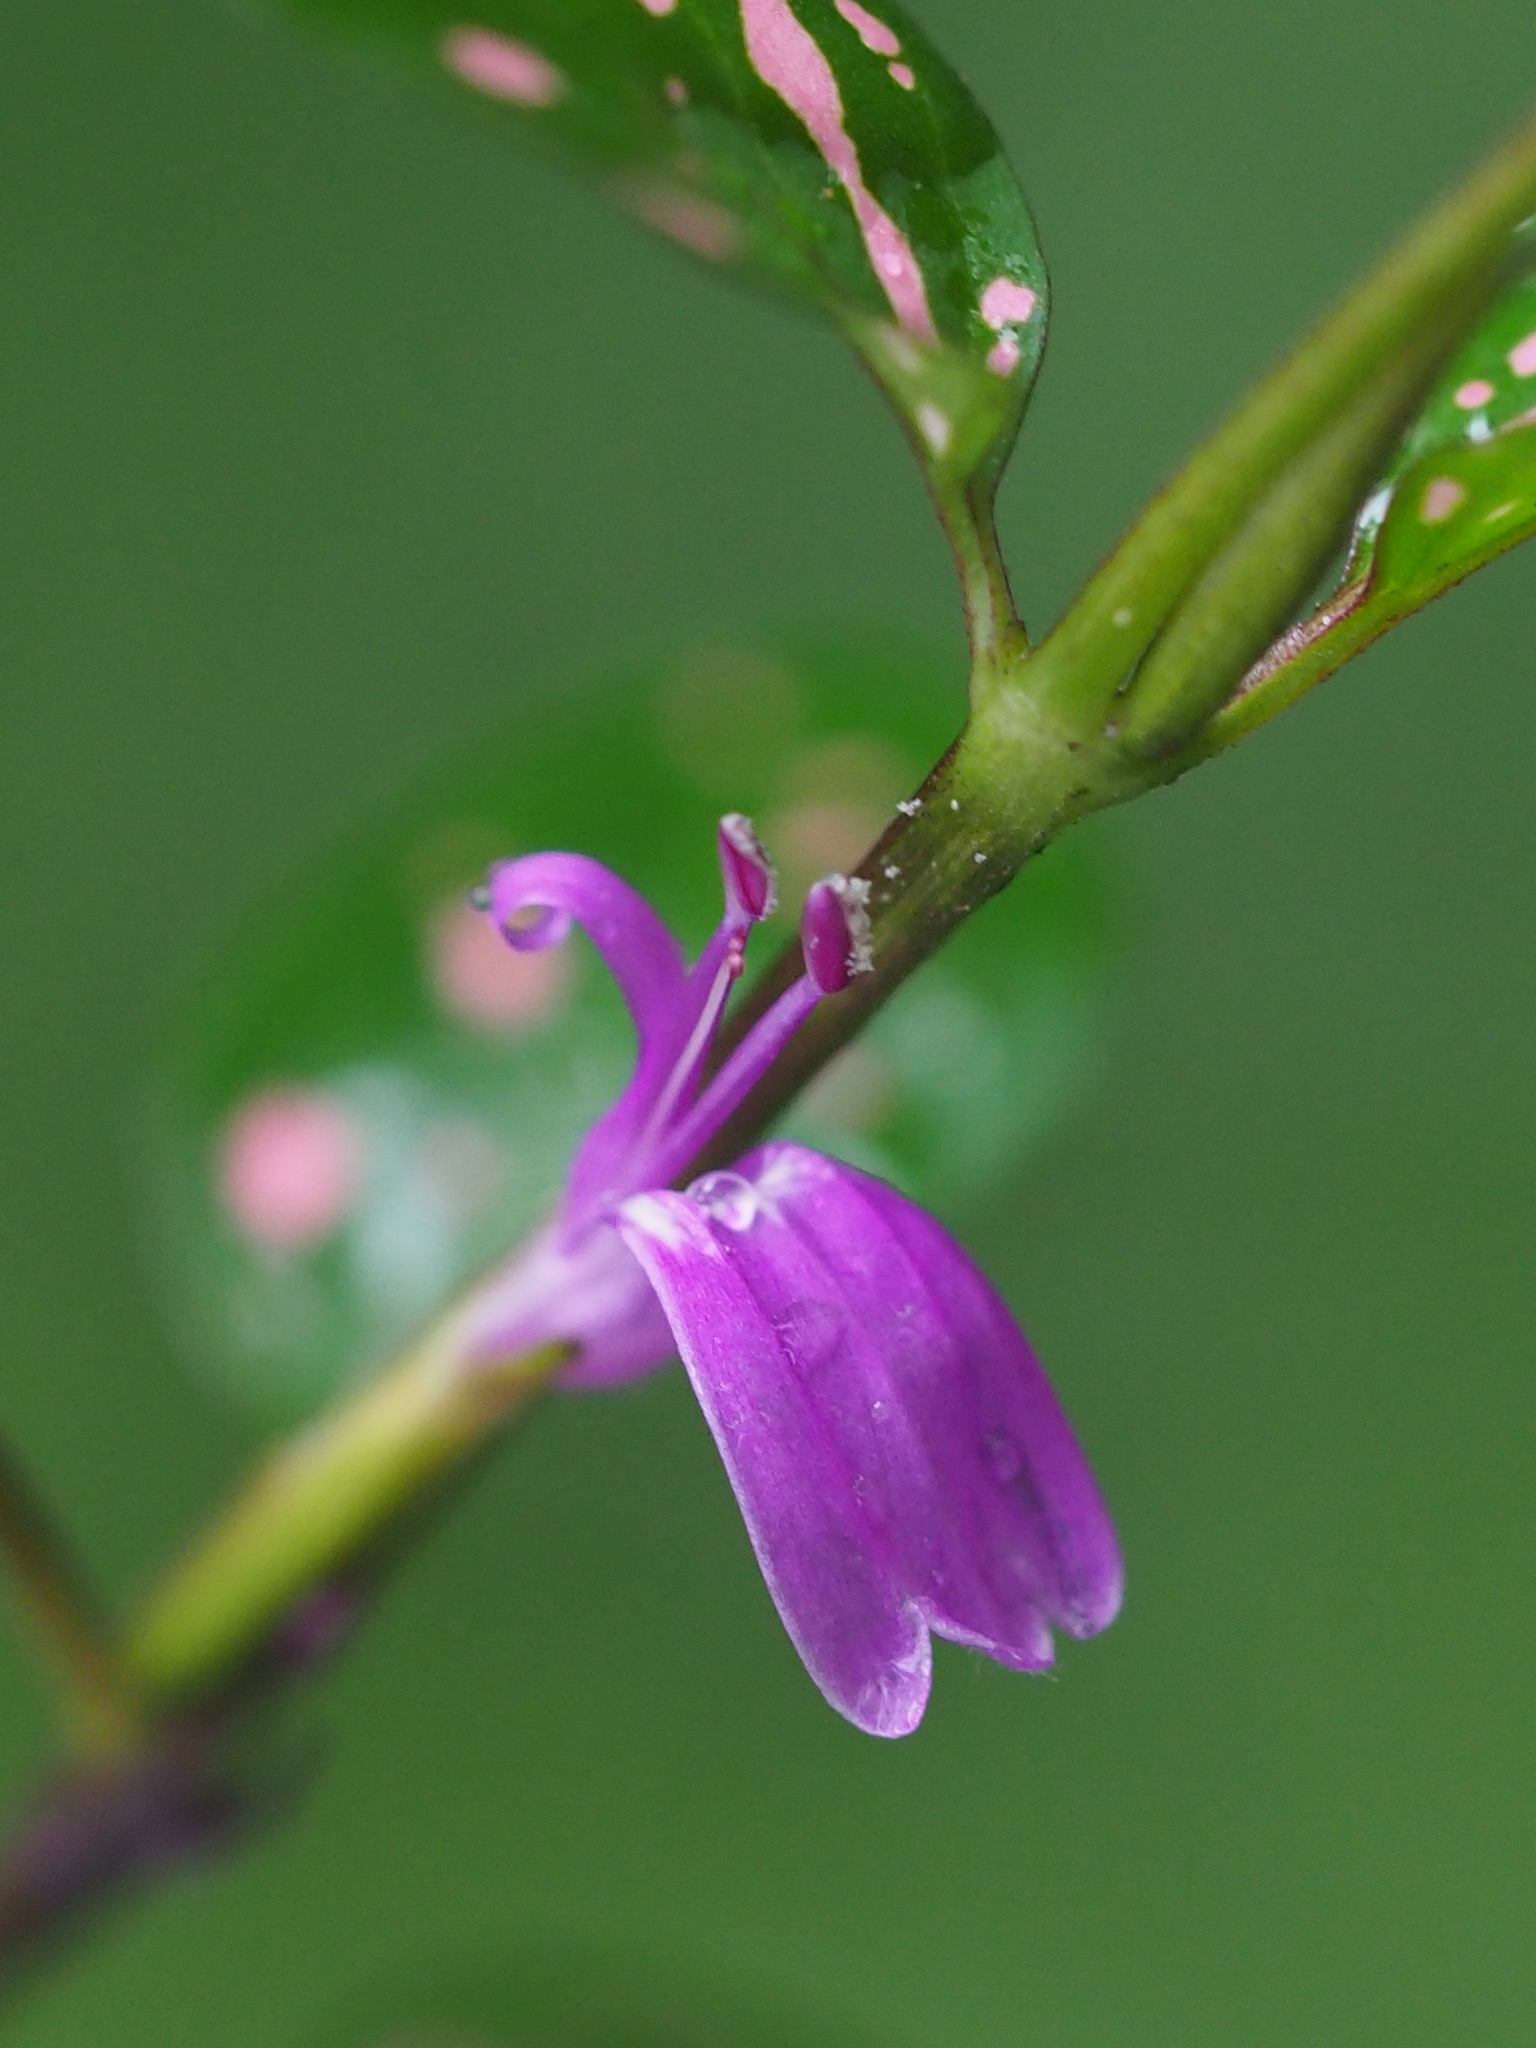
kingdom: Plantae
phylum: Tracheophyta
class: Magnoliopsida
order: Lamiales
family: Acanthaceae
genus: Hypoestes
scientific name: Hypoestes phyllostachya
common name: Polkadot-plant
